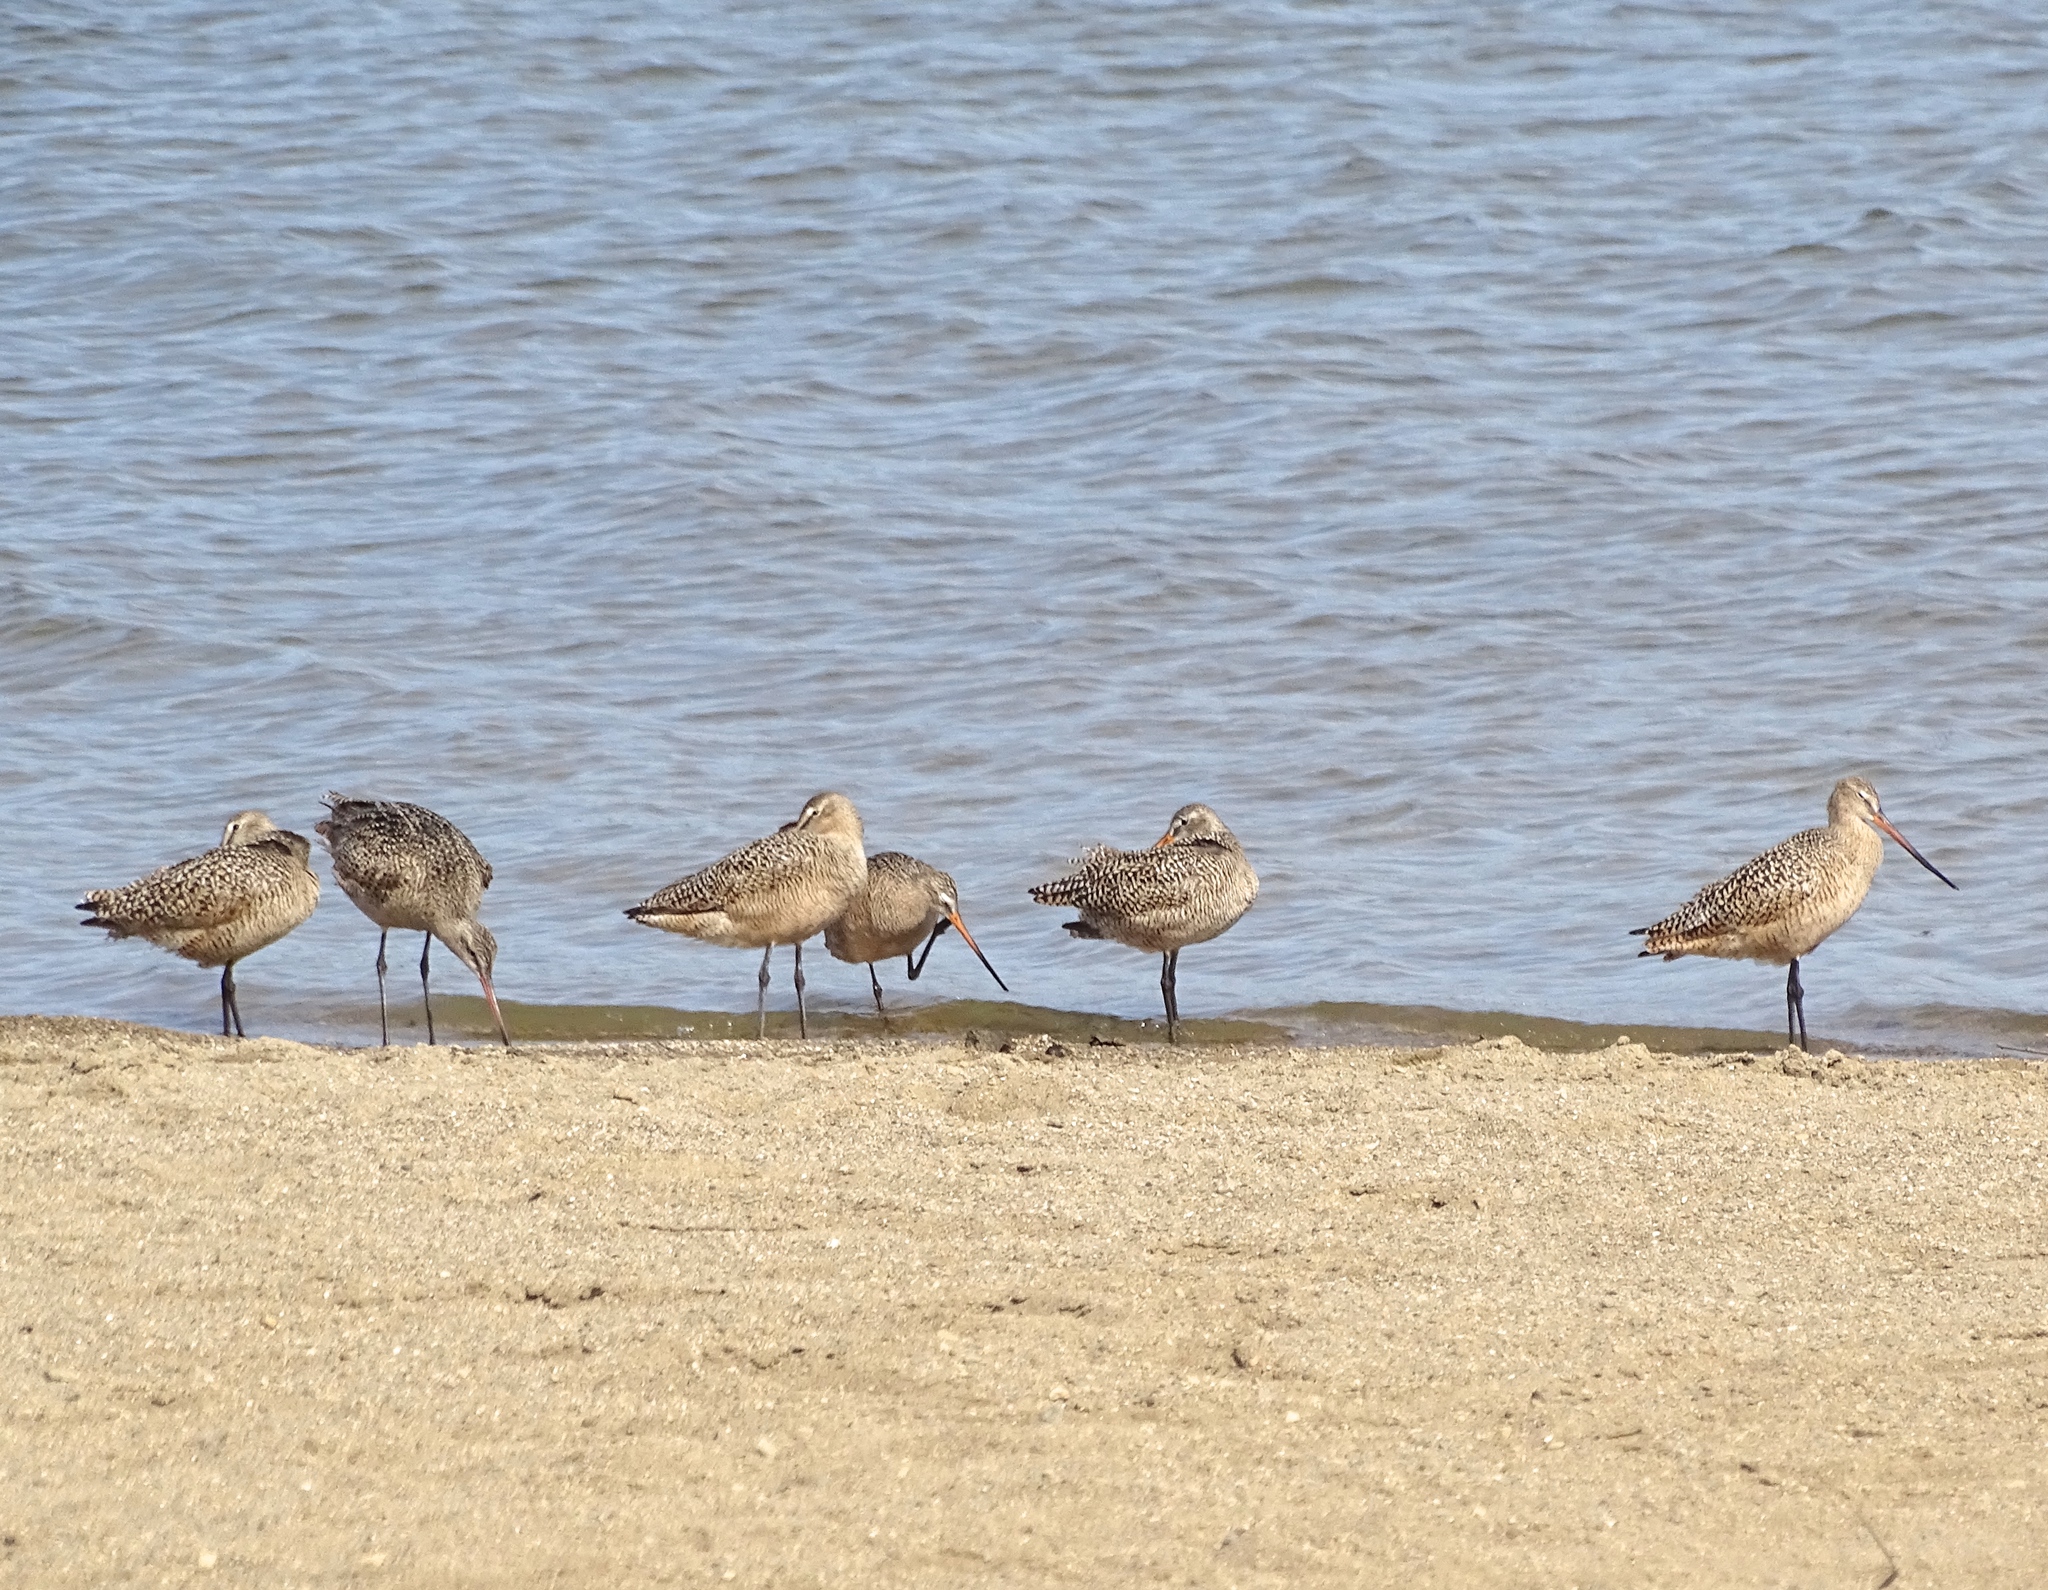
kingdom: Animalia
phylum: Chordata
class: Aves
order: Charadriiformes
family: Scolopacidae
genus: Limosa
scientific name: Limosa fedoa
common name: Marbled godwit
